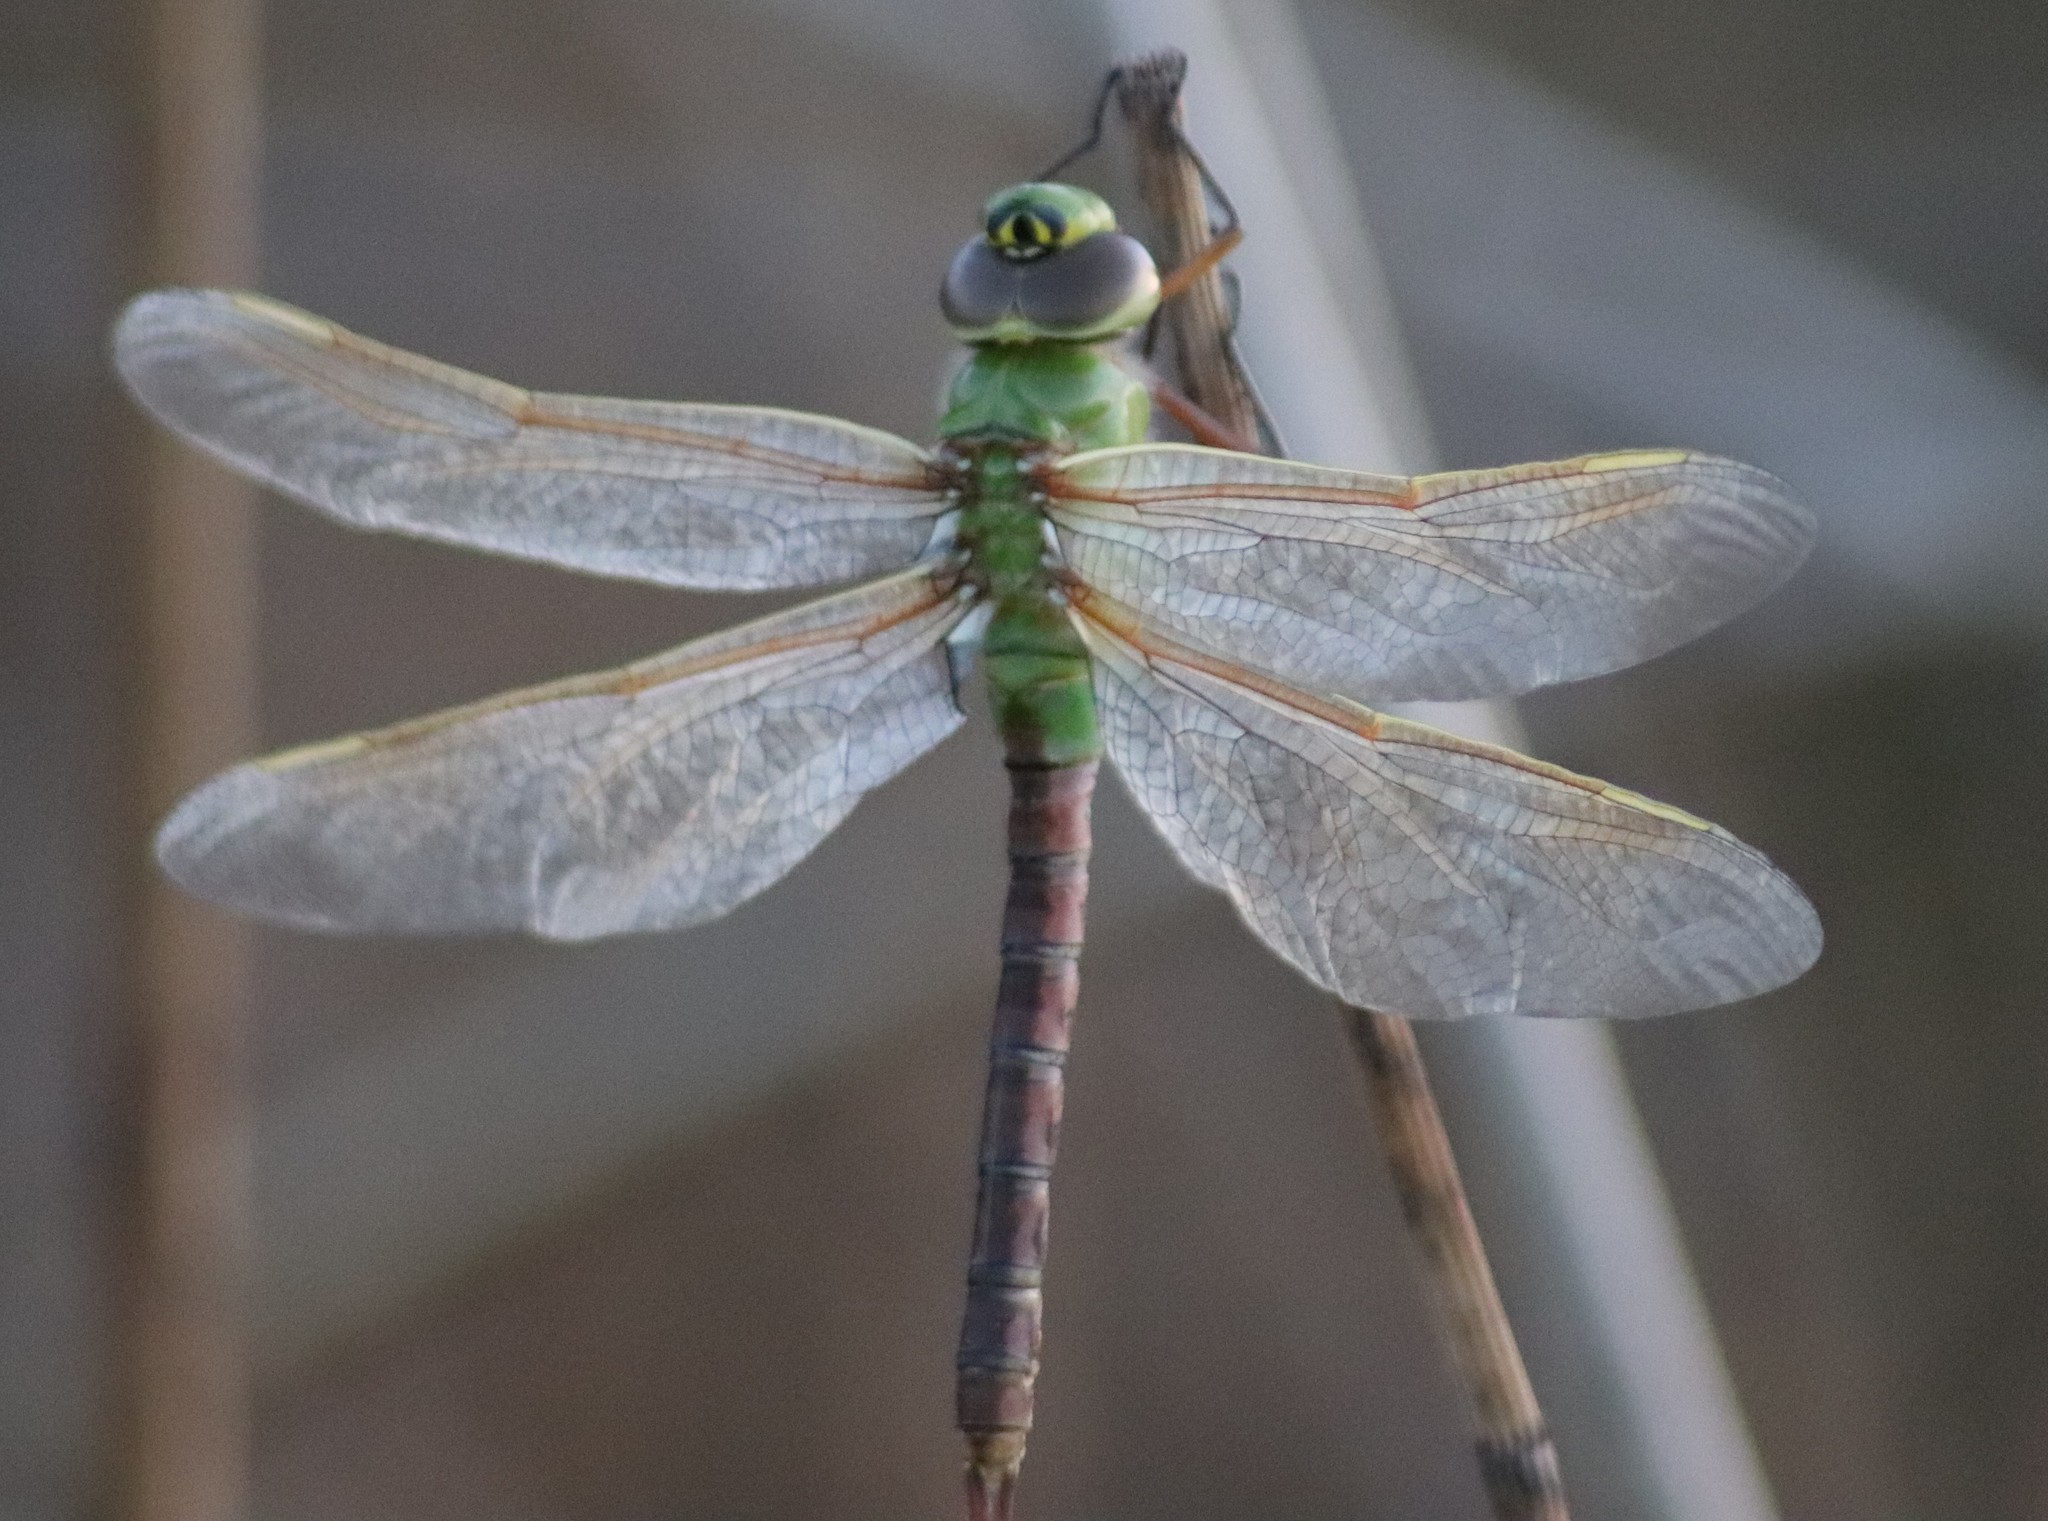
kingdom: Animalia
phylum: Arthropoda
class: Insecta
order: Odonata
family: Aeshnidae
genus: Anax
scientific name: Anax junius
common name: Common green darner
